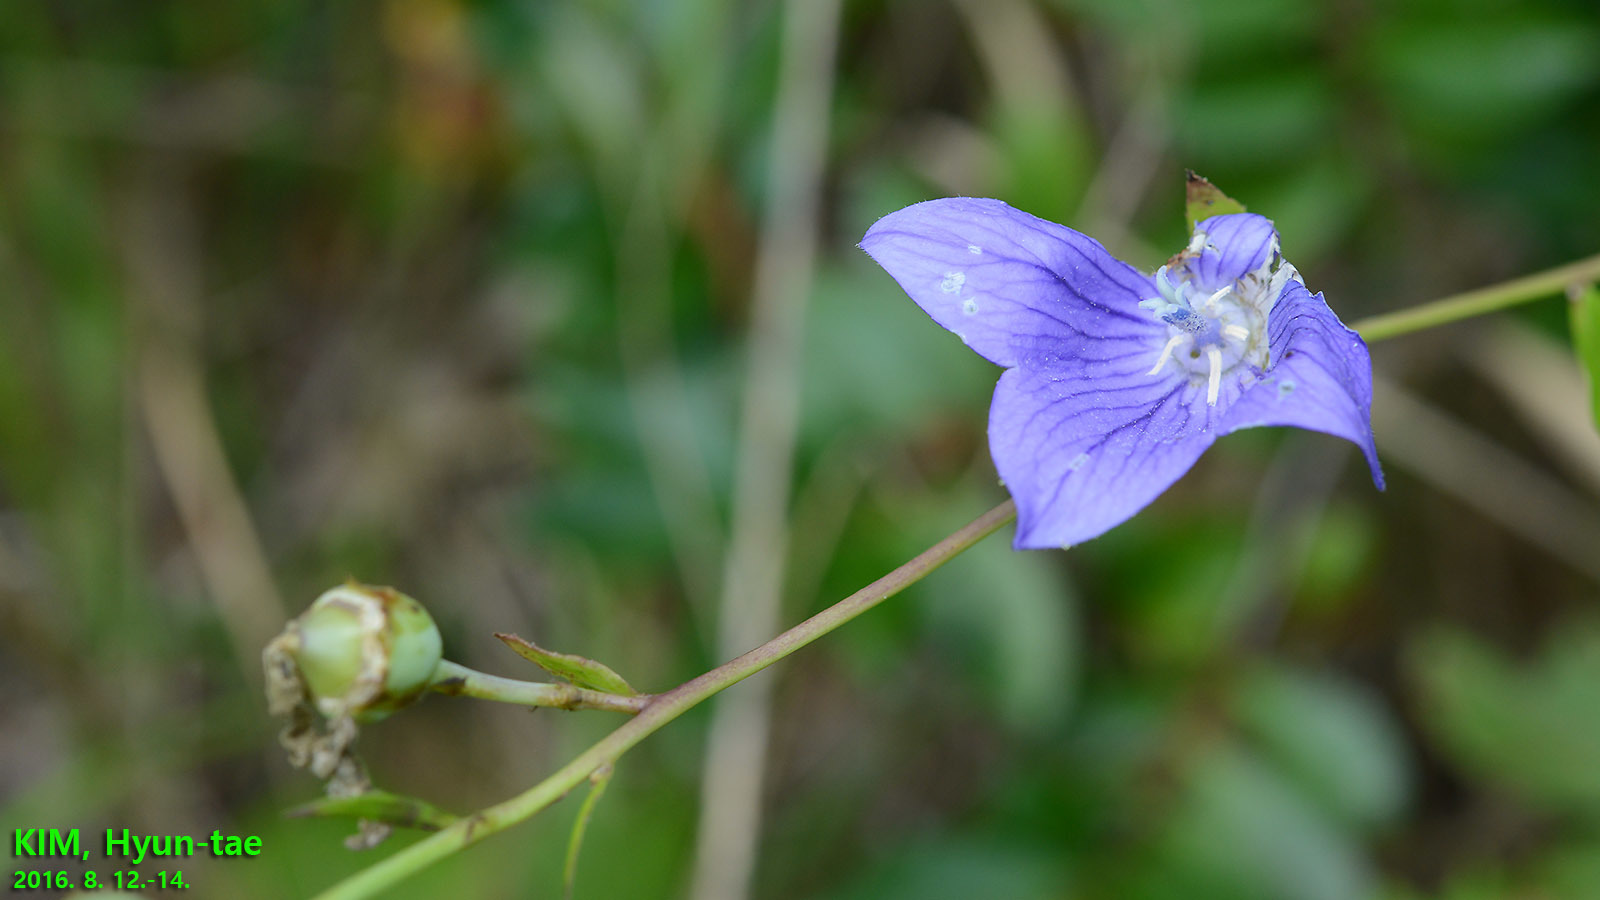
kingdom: Plantae
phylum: Tracheophyta
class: Magnoliopsida
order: Asterales
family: Campanulaceae
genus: Platycodon
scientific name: Platycodon grandiflorus
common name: Balloon-flower
